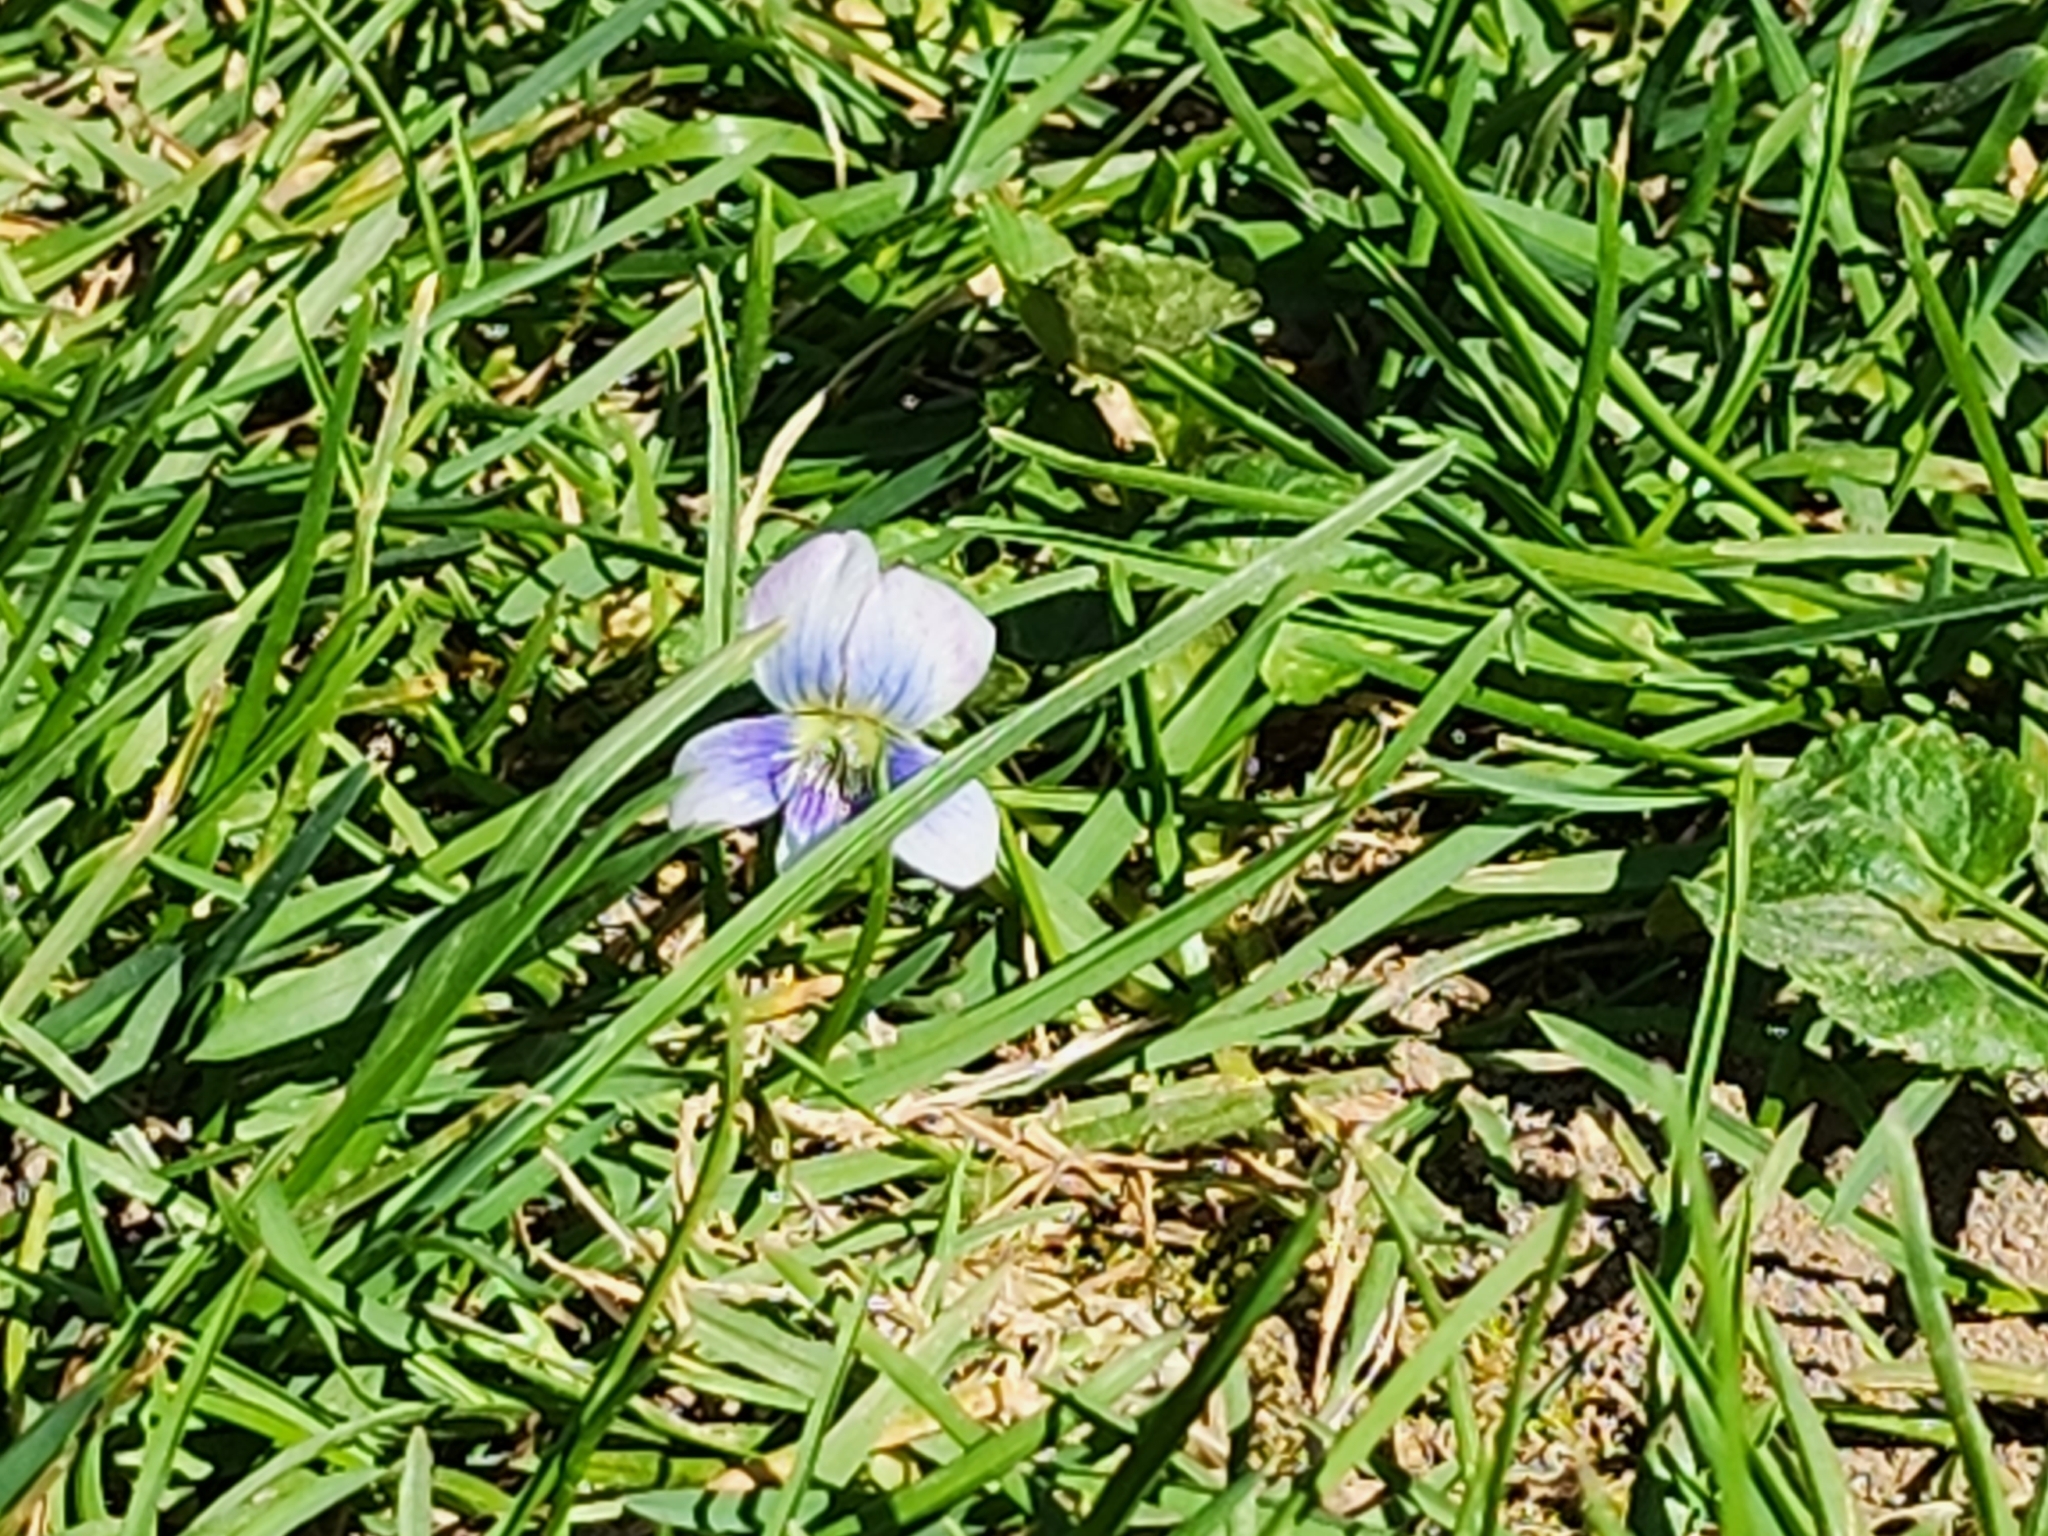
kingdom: Plantae
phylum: Tracheophyta
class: Magnoliopsida
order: Malpighiales
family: Violaceae
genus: Viola
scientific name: Viola sororia
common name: Dooryard violet
